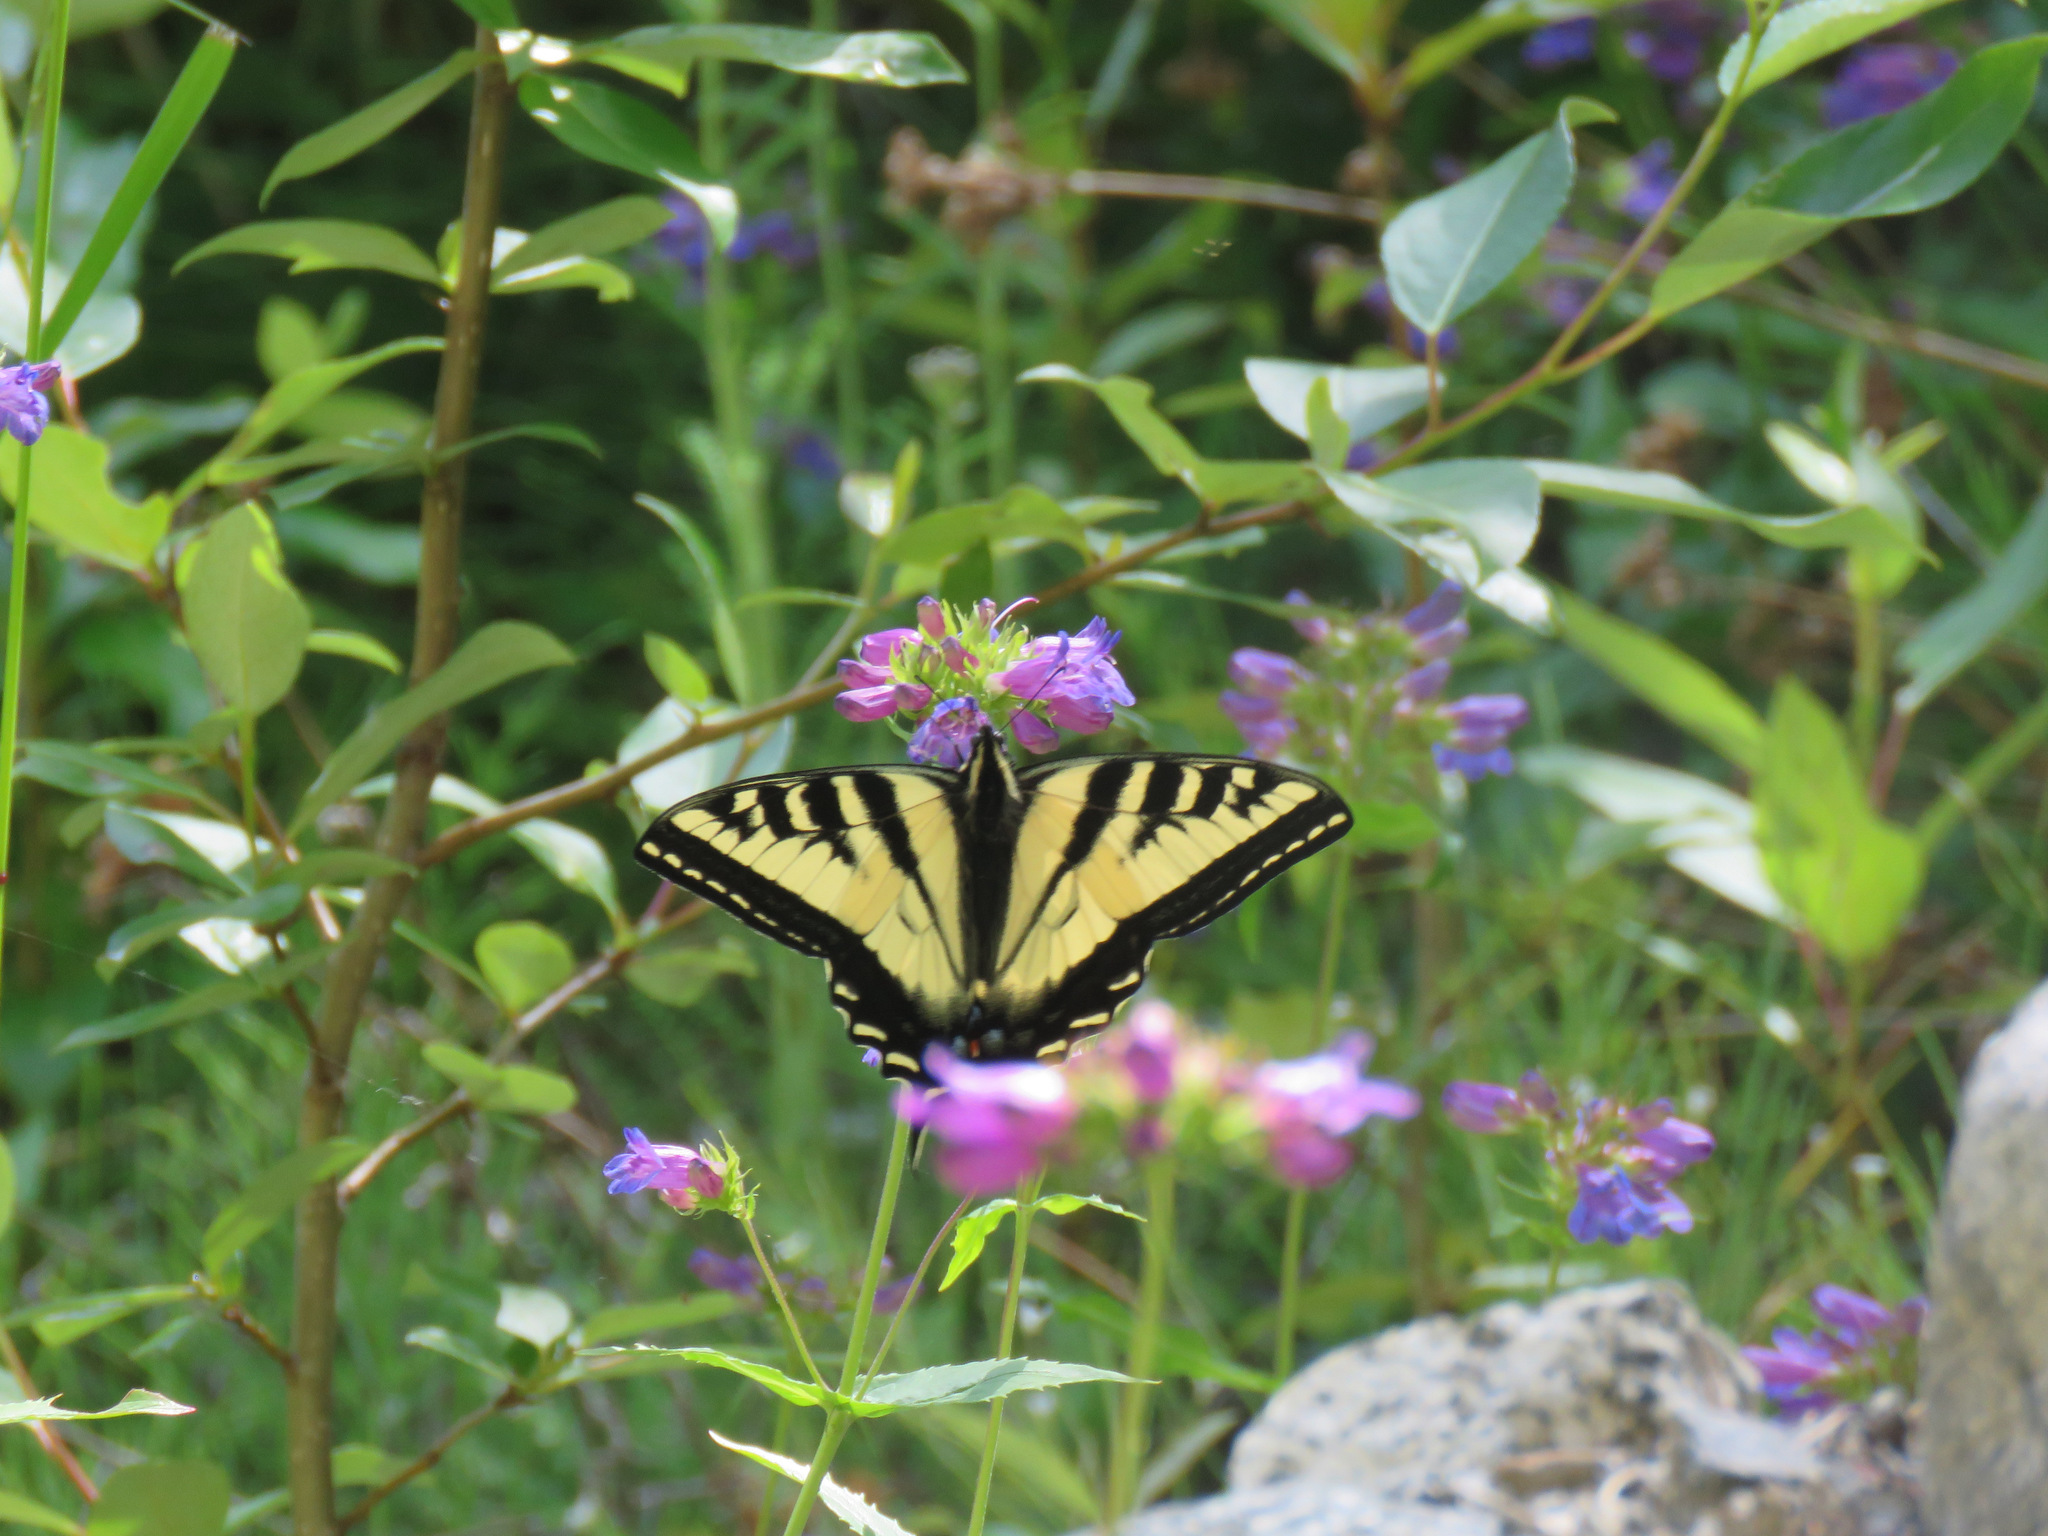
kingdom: Animalia
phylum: Arthropoda
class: Insecta
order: Lepidoptera
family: Papilionidae
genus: Papilio
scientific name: Papilio rutulus
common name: Western tiger swallowtail
